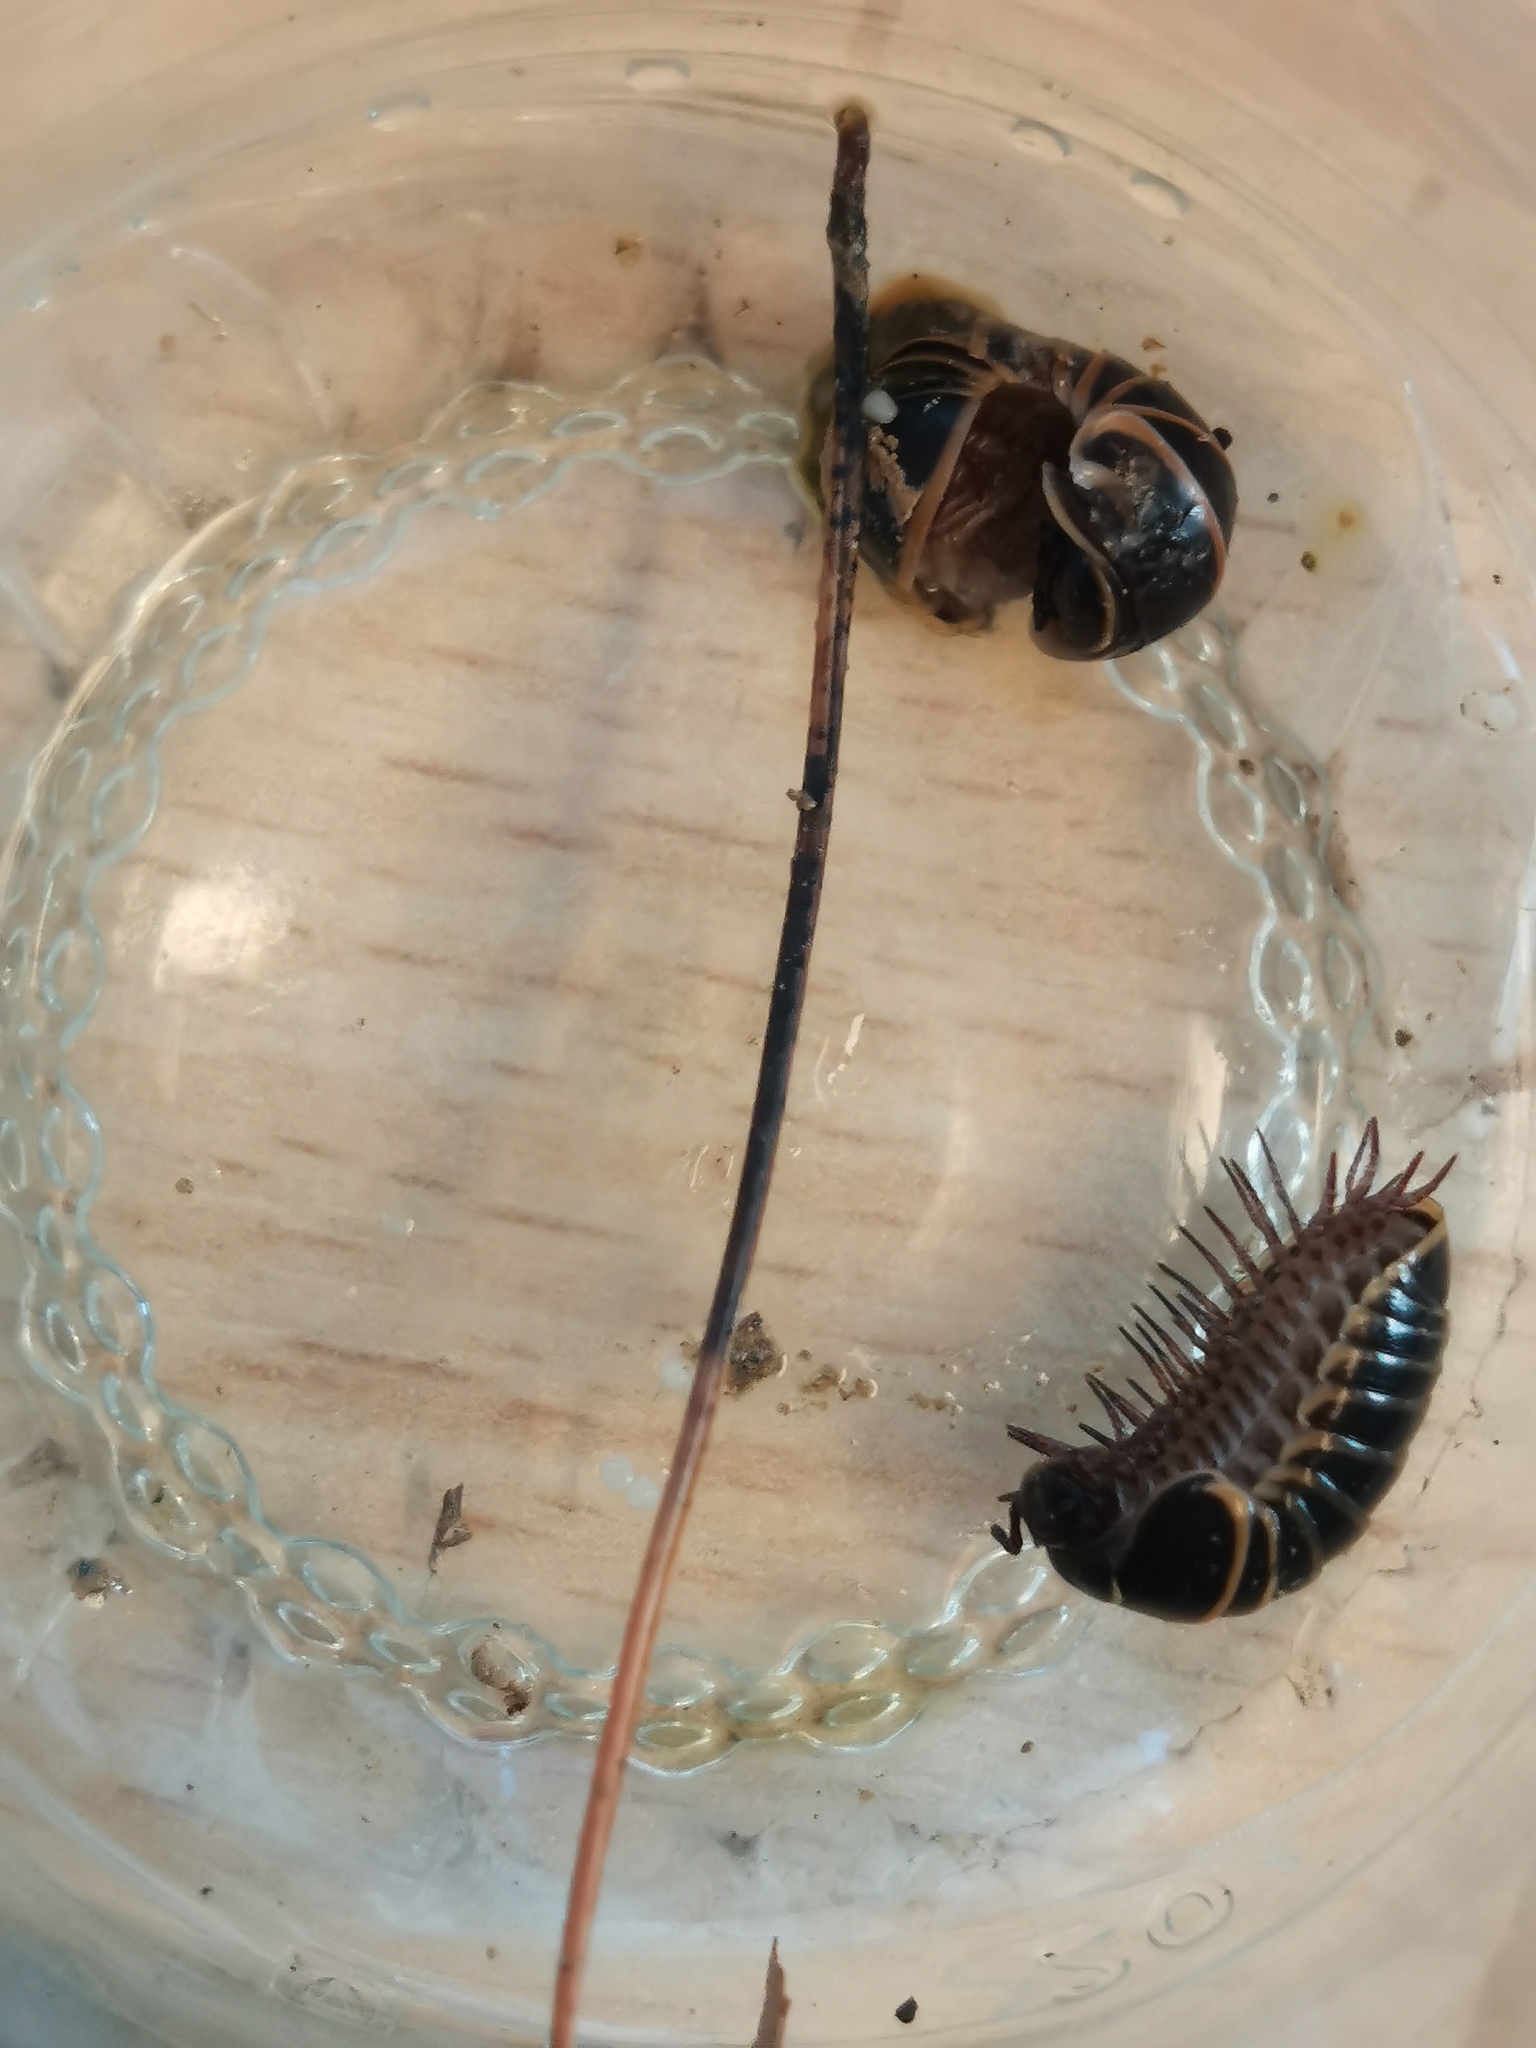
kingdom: Animalia
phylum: Arthropoda
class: Diplopoda
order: Glomerida
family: Glomeridae
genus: Glomeris
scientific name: Glomeris marginata
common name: Bordered pill millipede
